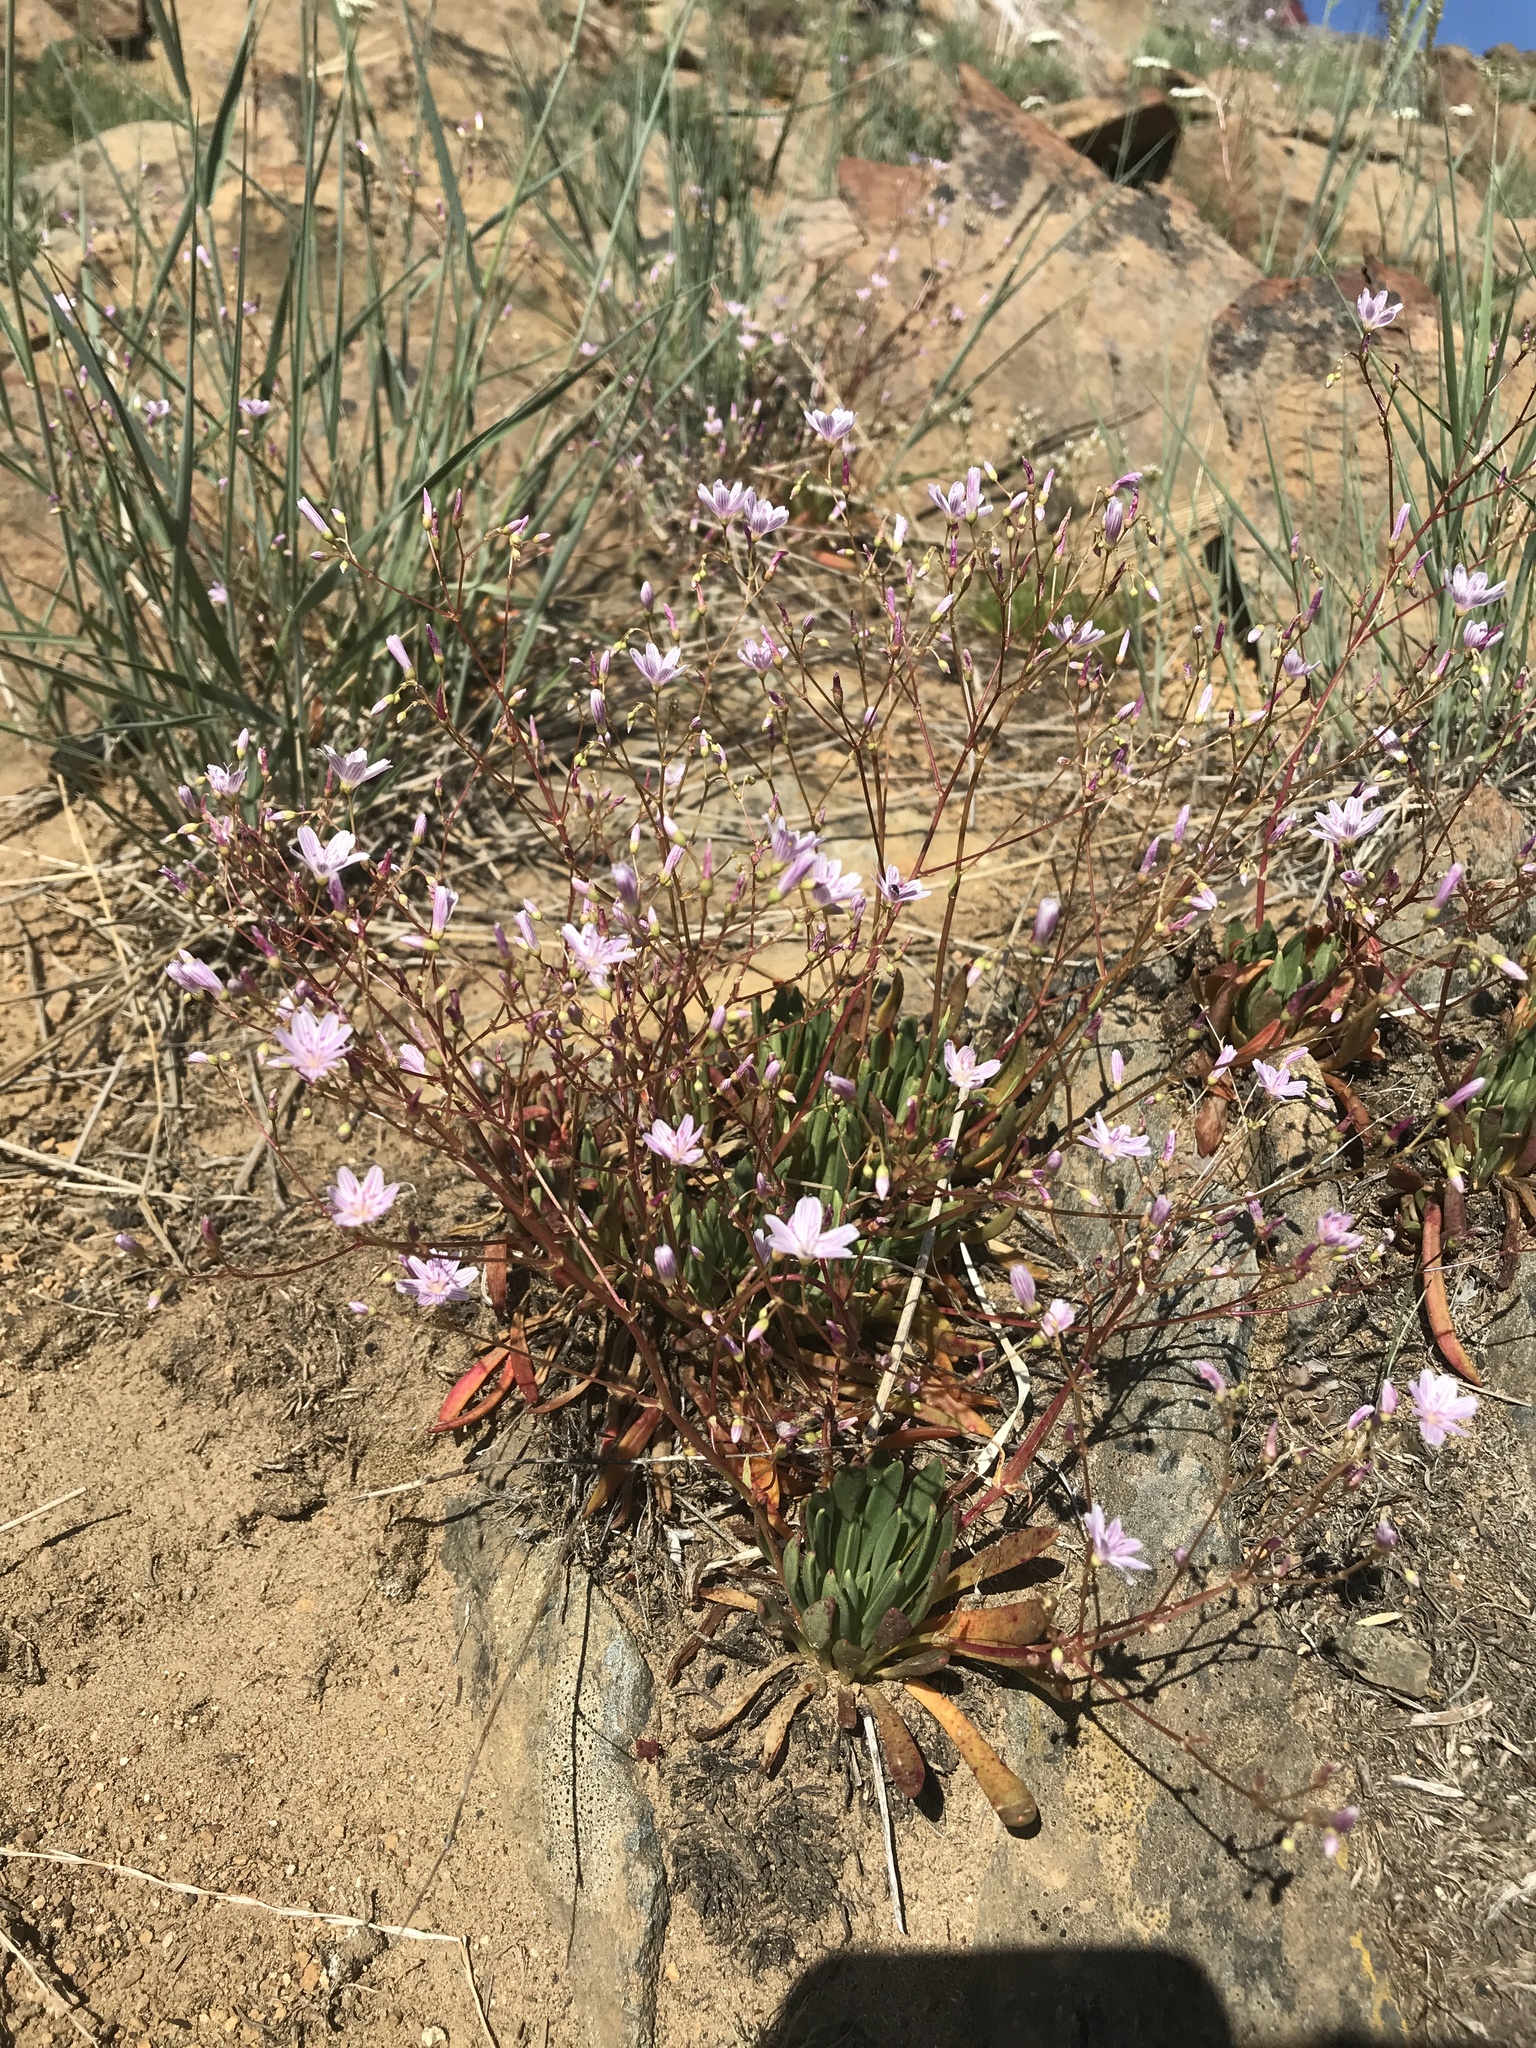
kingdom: Plantae
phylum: Tracheophyta
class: Magnoliopsida
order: Caryophyllales
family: Montiaceae
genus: Lewisia
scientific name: Lewisia columbiana
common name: Columbia lewisia
